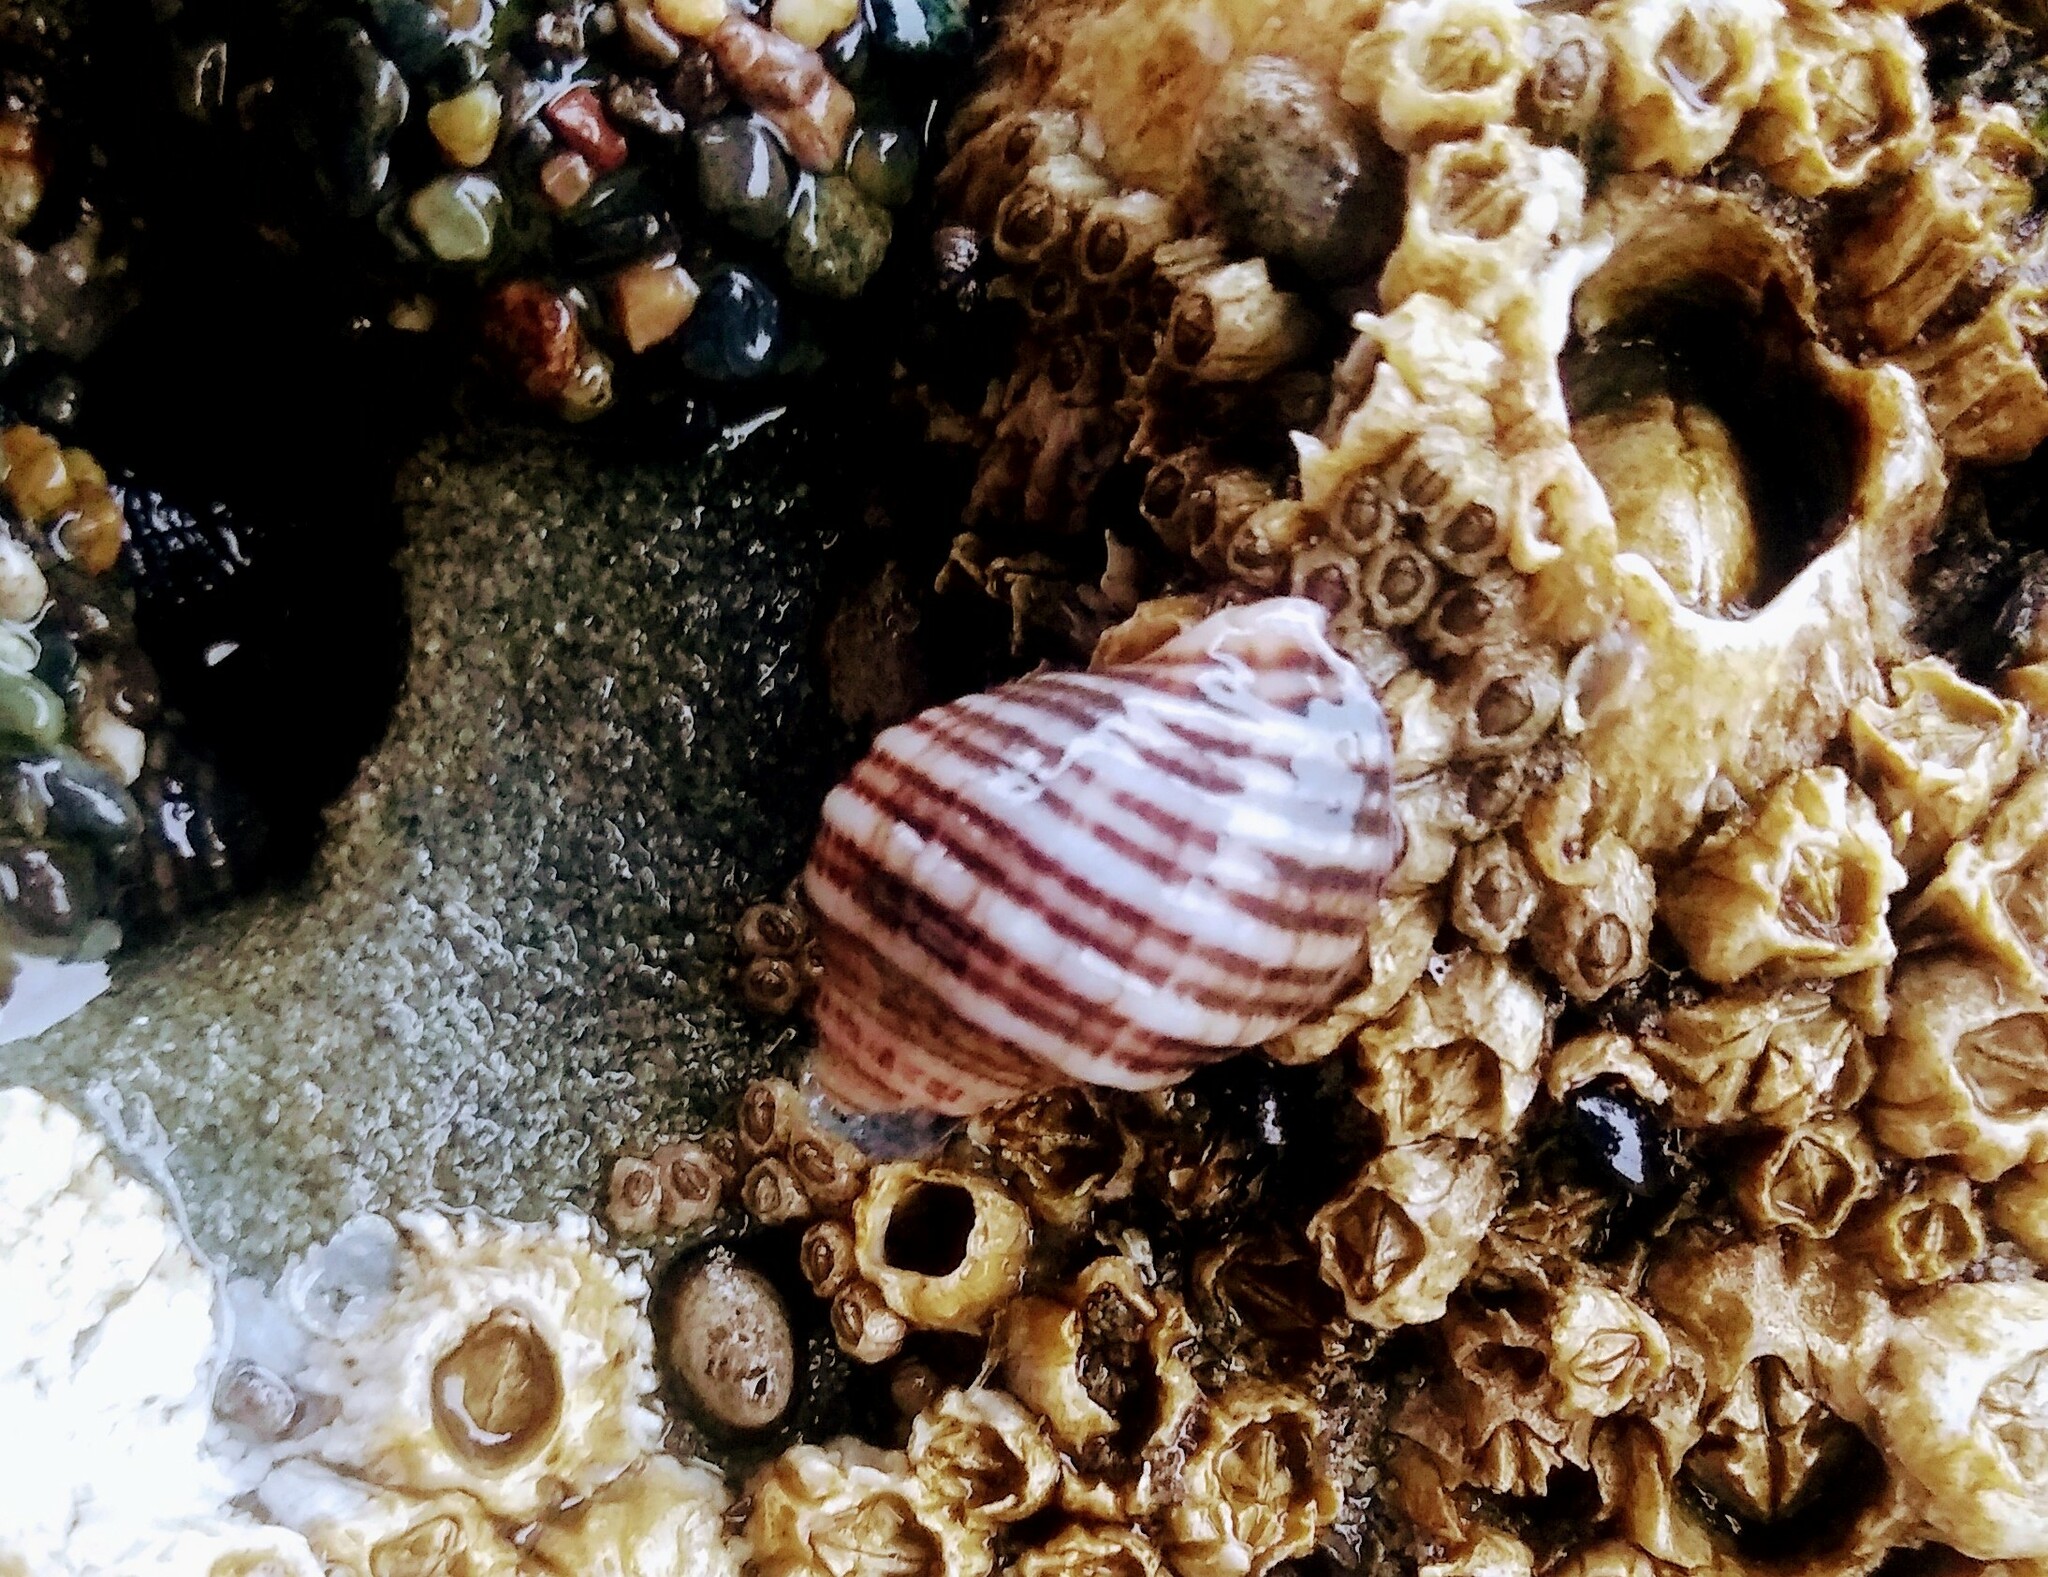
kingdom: Animalia
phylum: Mollusca
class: Gastropoda
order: Neogastropoda
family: Muricidae
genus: Nucella
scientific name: Nucella ostrina
